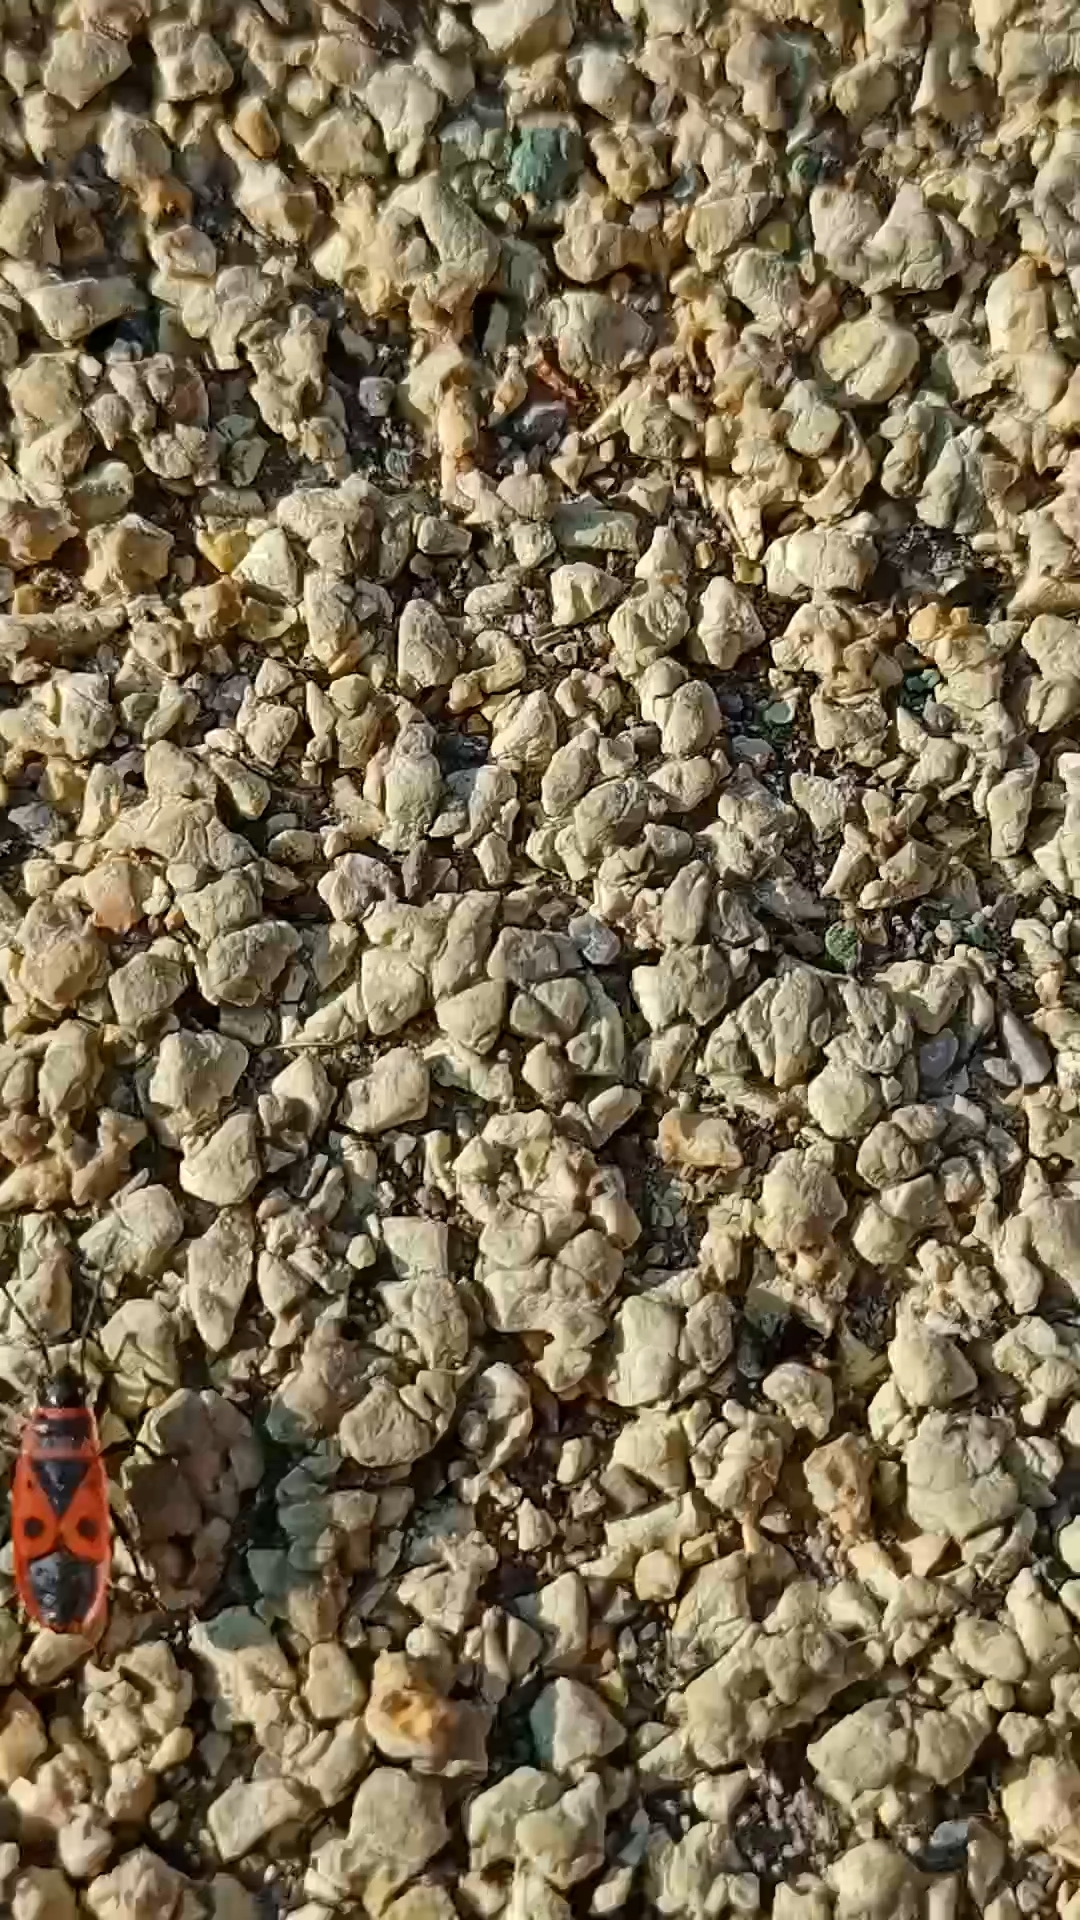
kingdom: Animalia
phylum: Arthropoda
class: Insecta
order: Hemiptera
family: Pyrrhocoridae
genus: Pyrrhocoris
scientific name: Pyrrhocoris apterus
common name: Firebug
